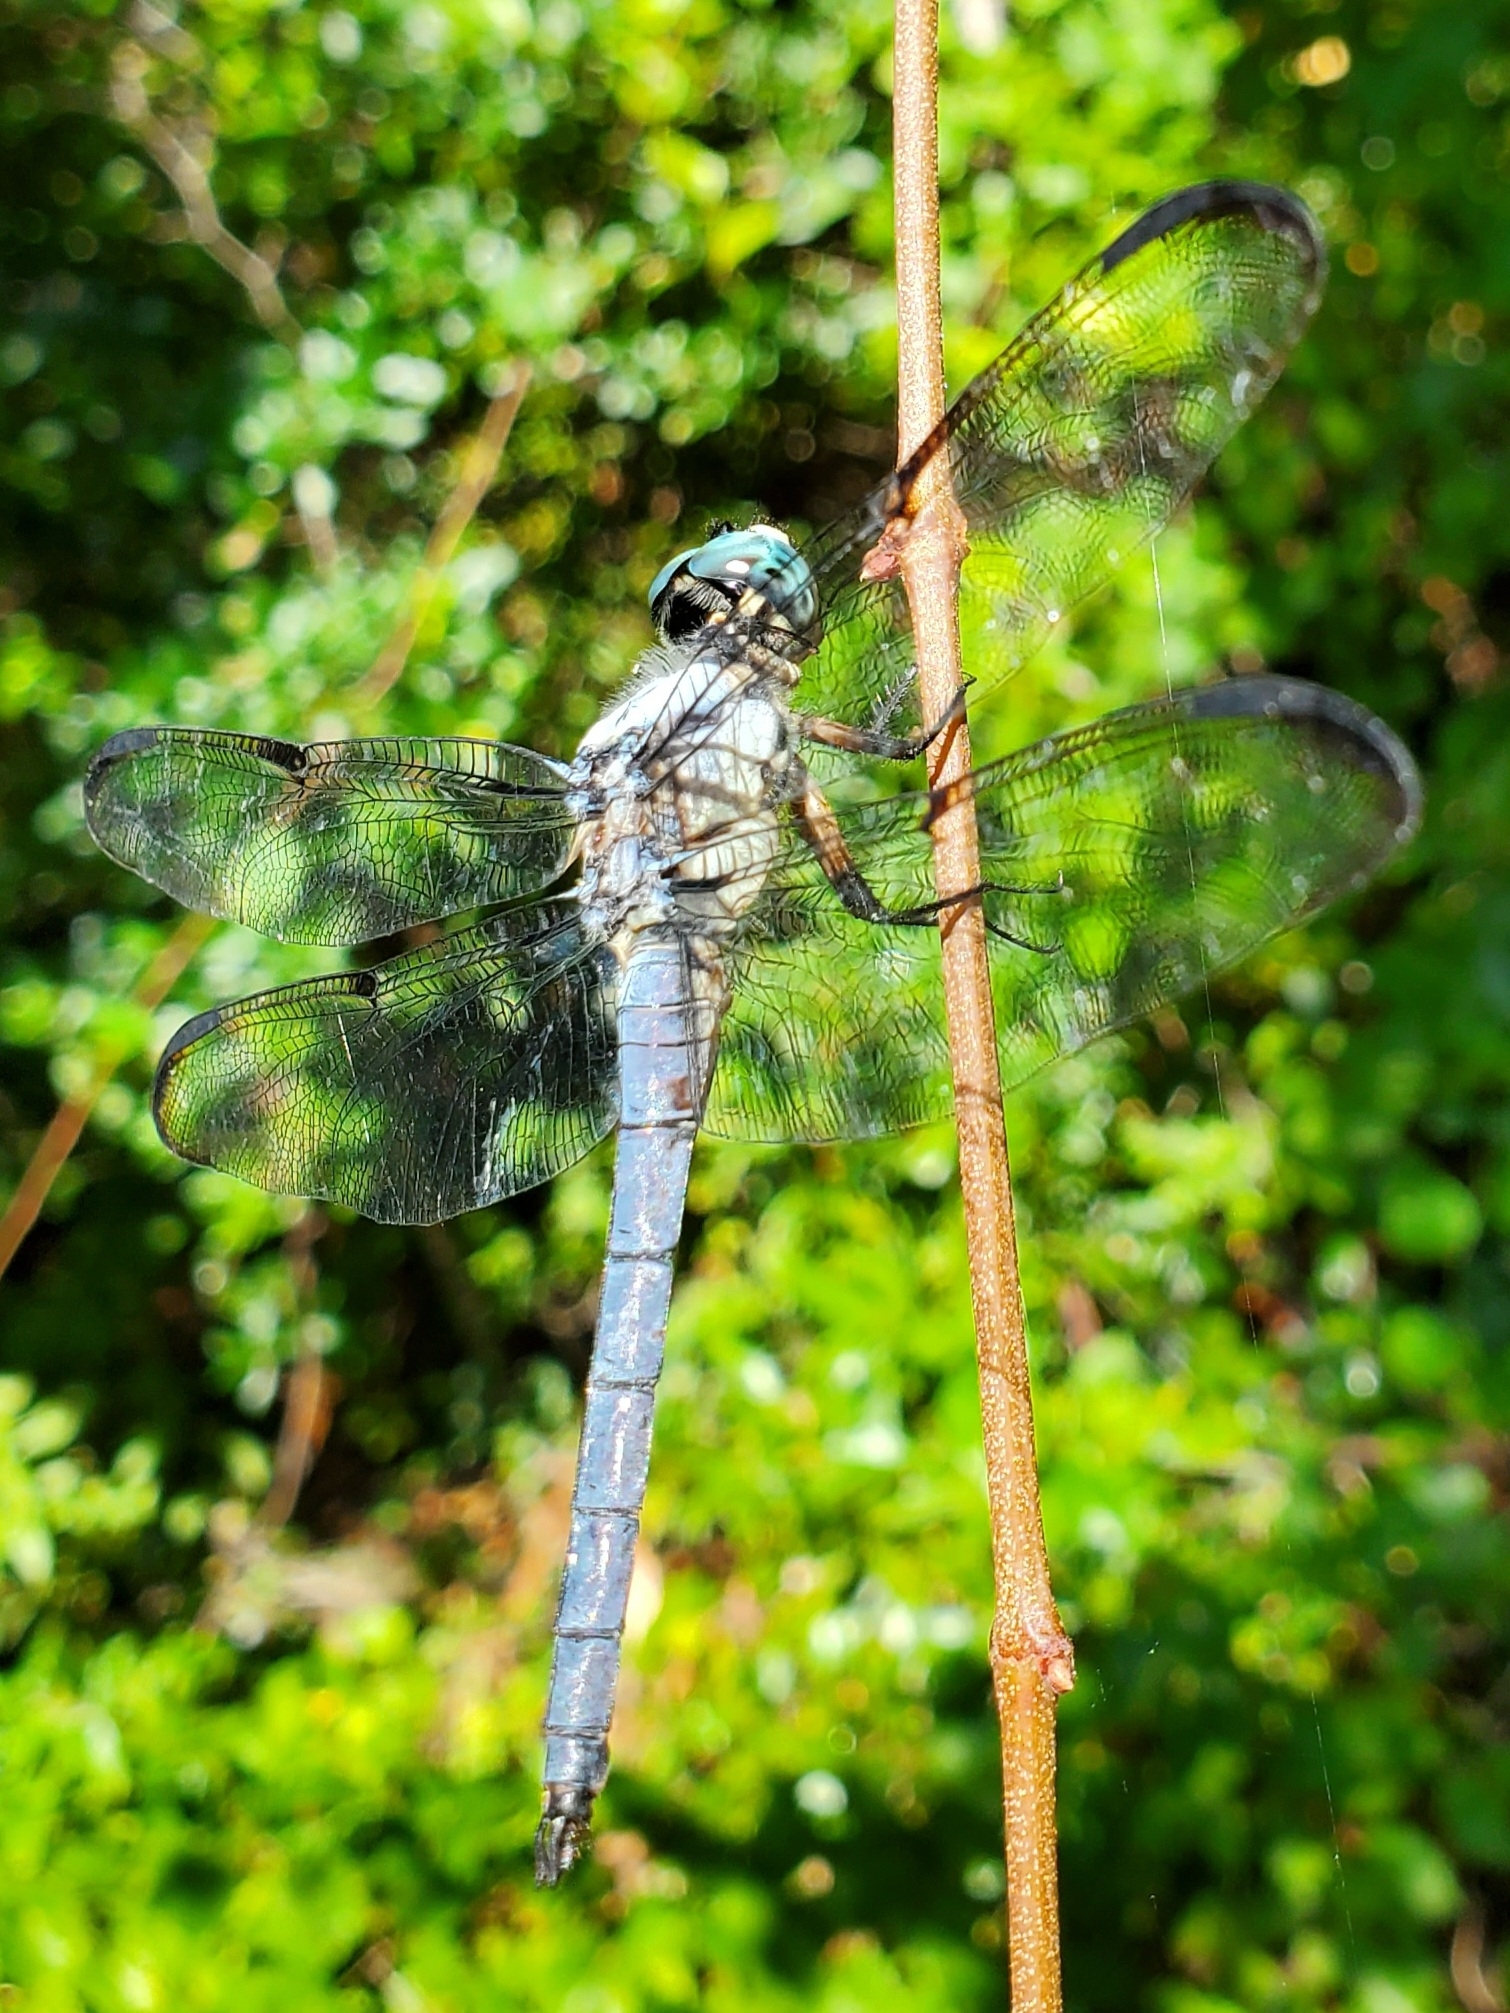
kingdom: Animalia
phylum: Arthropoda
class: Insecta
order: Odonata
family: Libellulidae
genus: Libellula
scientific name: Libellula vibrans
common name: Great blue skimmer
